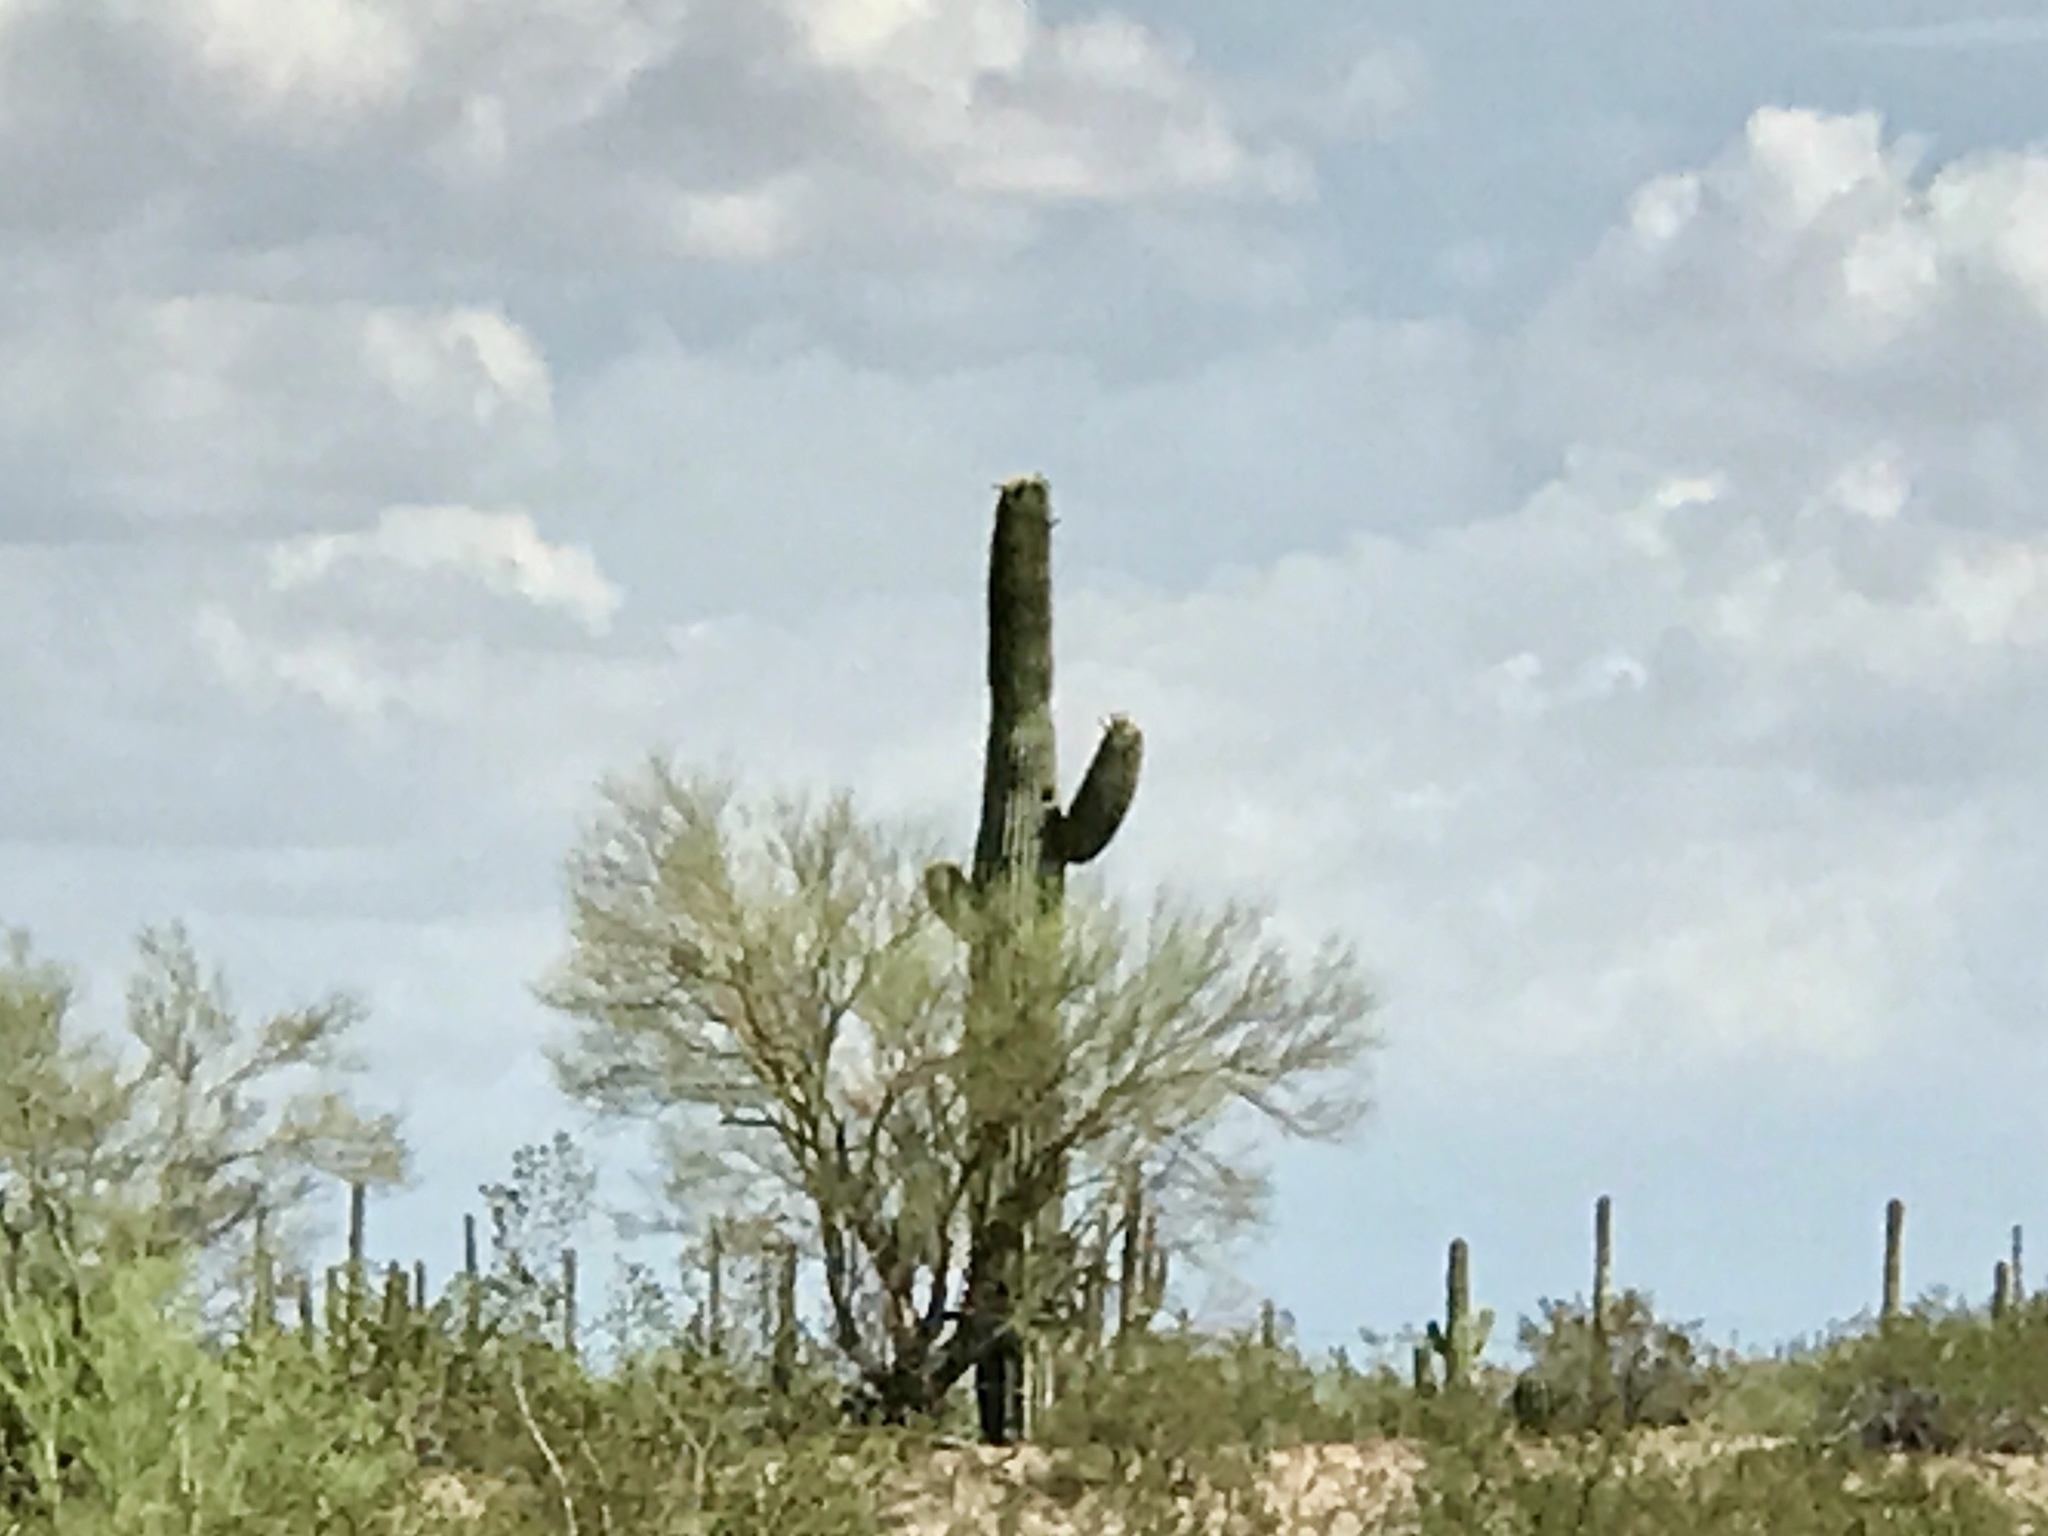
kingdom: Plantae
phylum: Tracheophyta
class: Magnoliopsida
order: Caryophyllales
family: Cactaceae
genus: Carnegiea
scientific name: Carnegiea gigantea
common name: Saguaro
